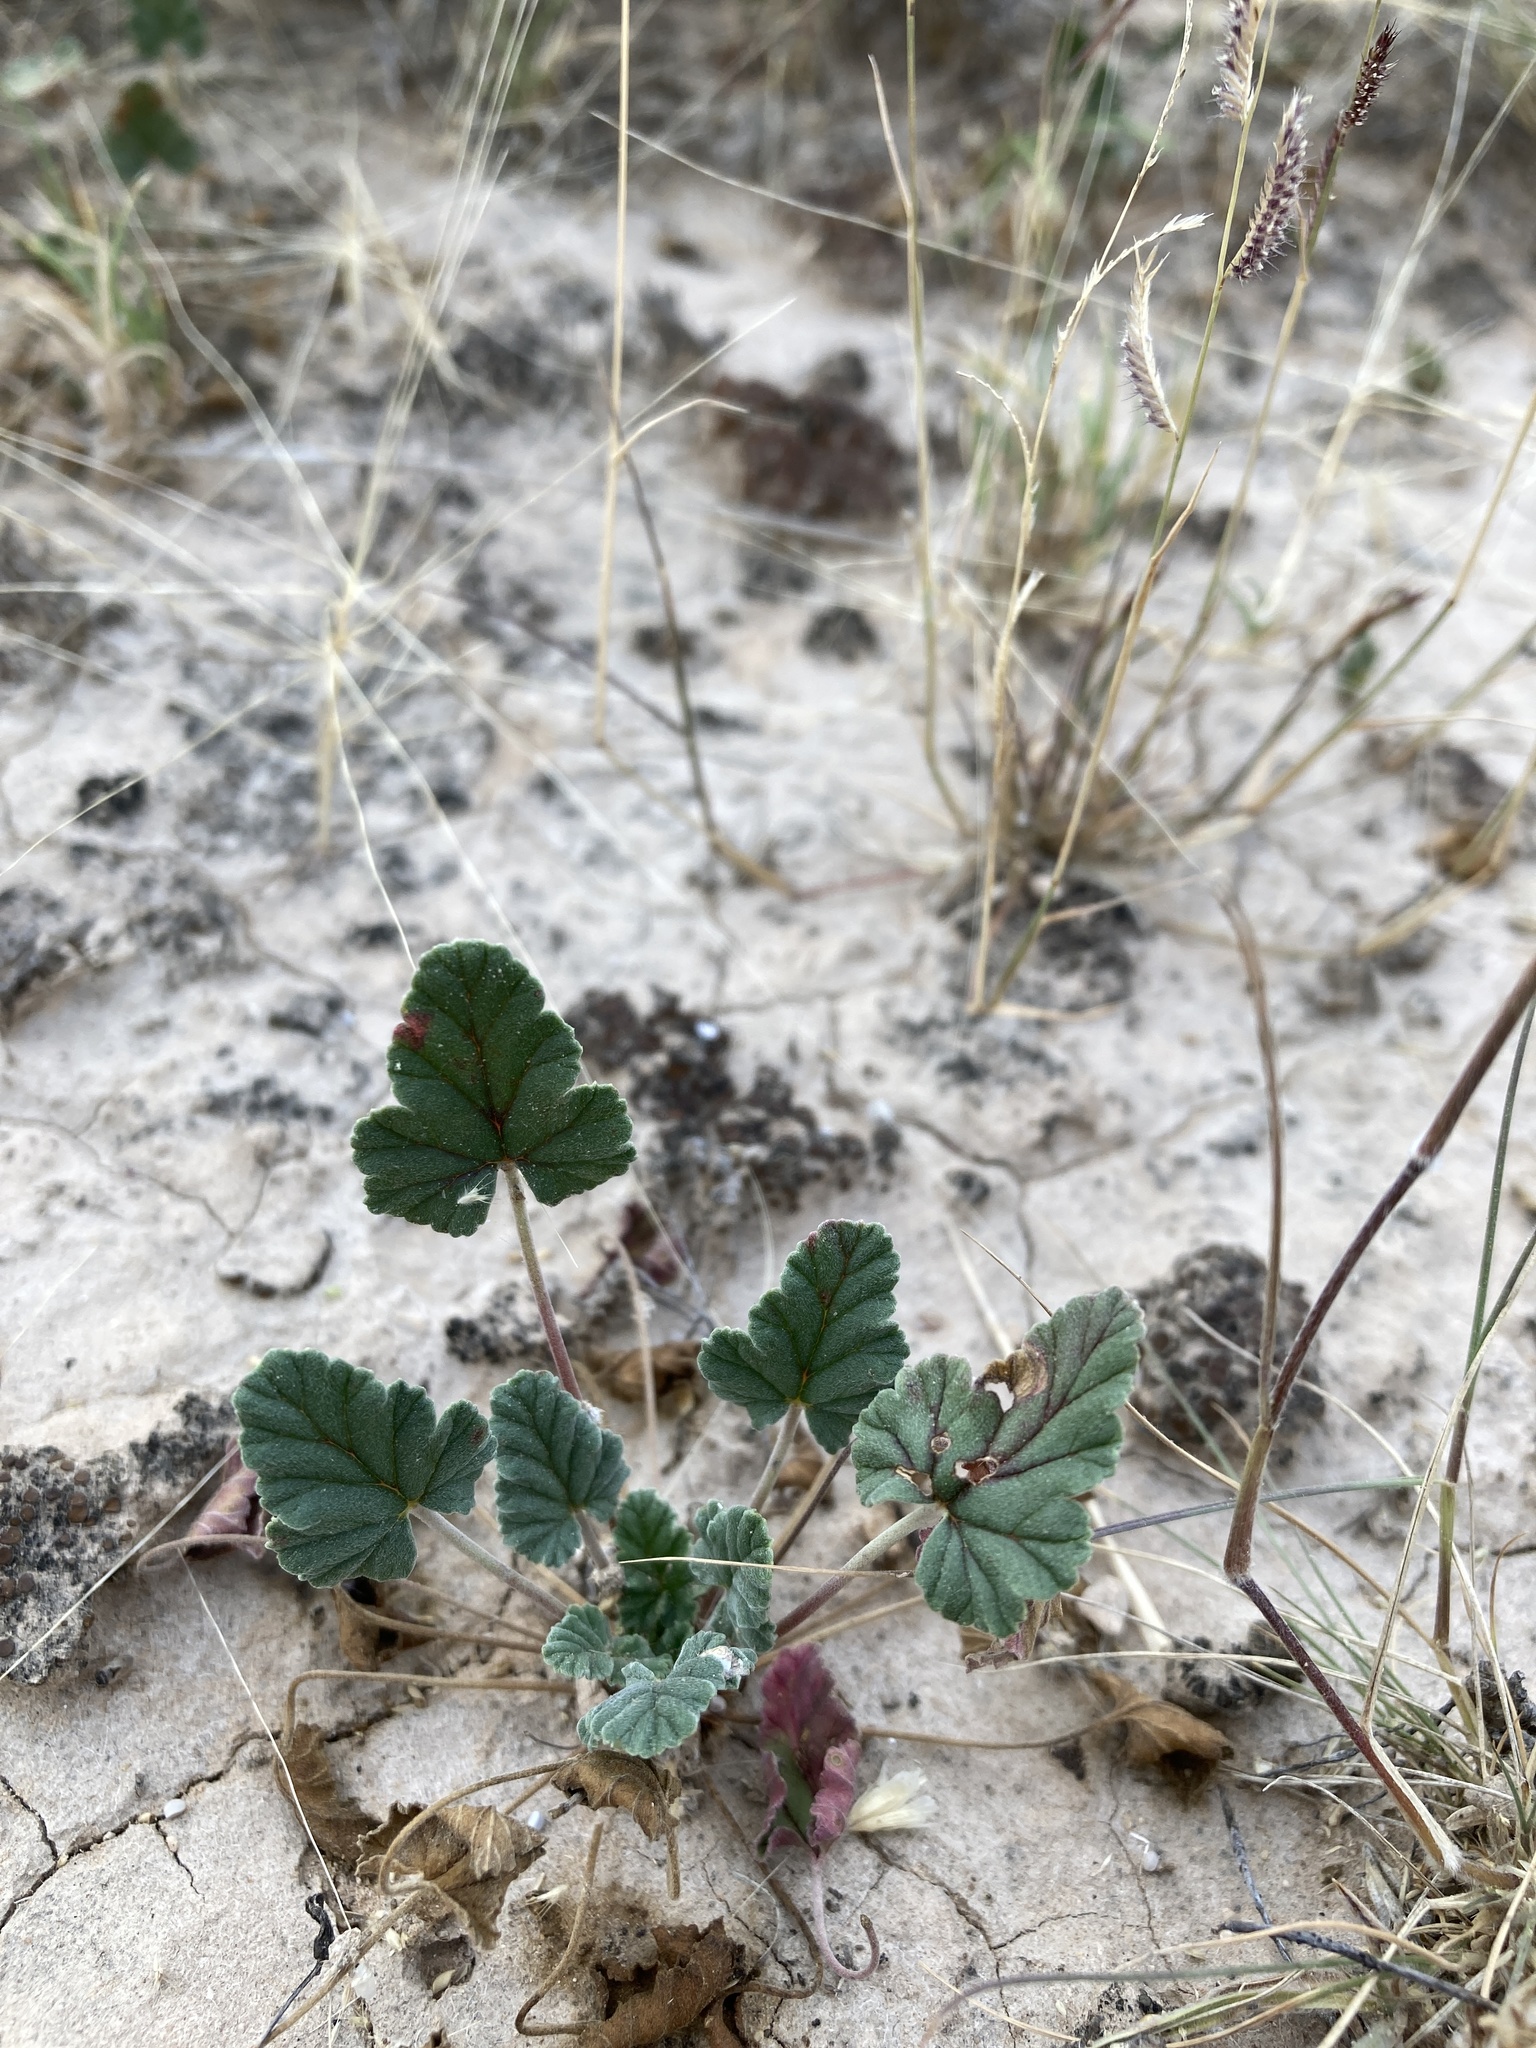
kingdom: Plantae
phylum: Tracheophyta
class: Magnoliopsida
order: Geraniales
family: Geraniaceae
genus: Erodium
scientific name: Erodium texanum
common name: Texas stork's-bill
